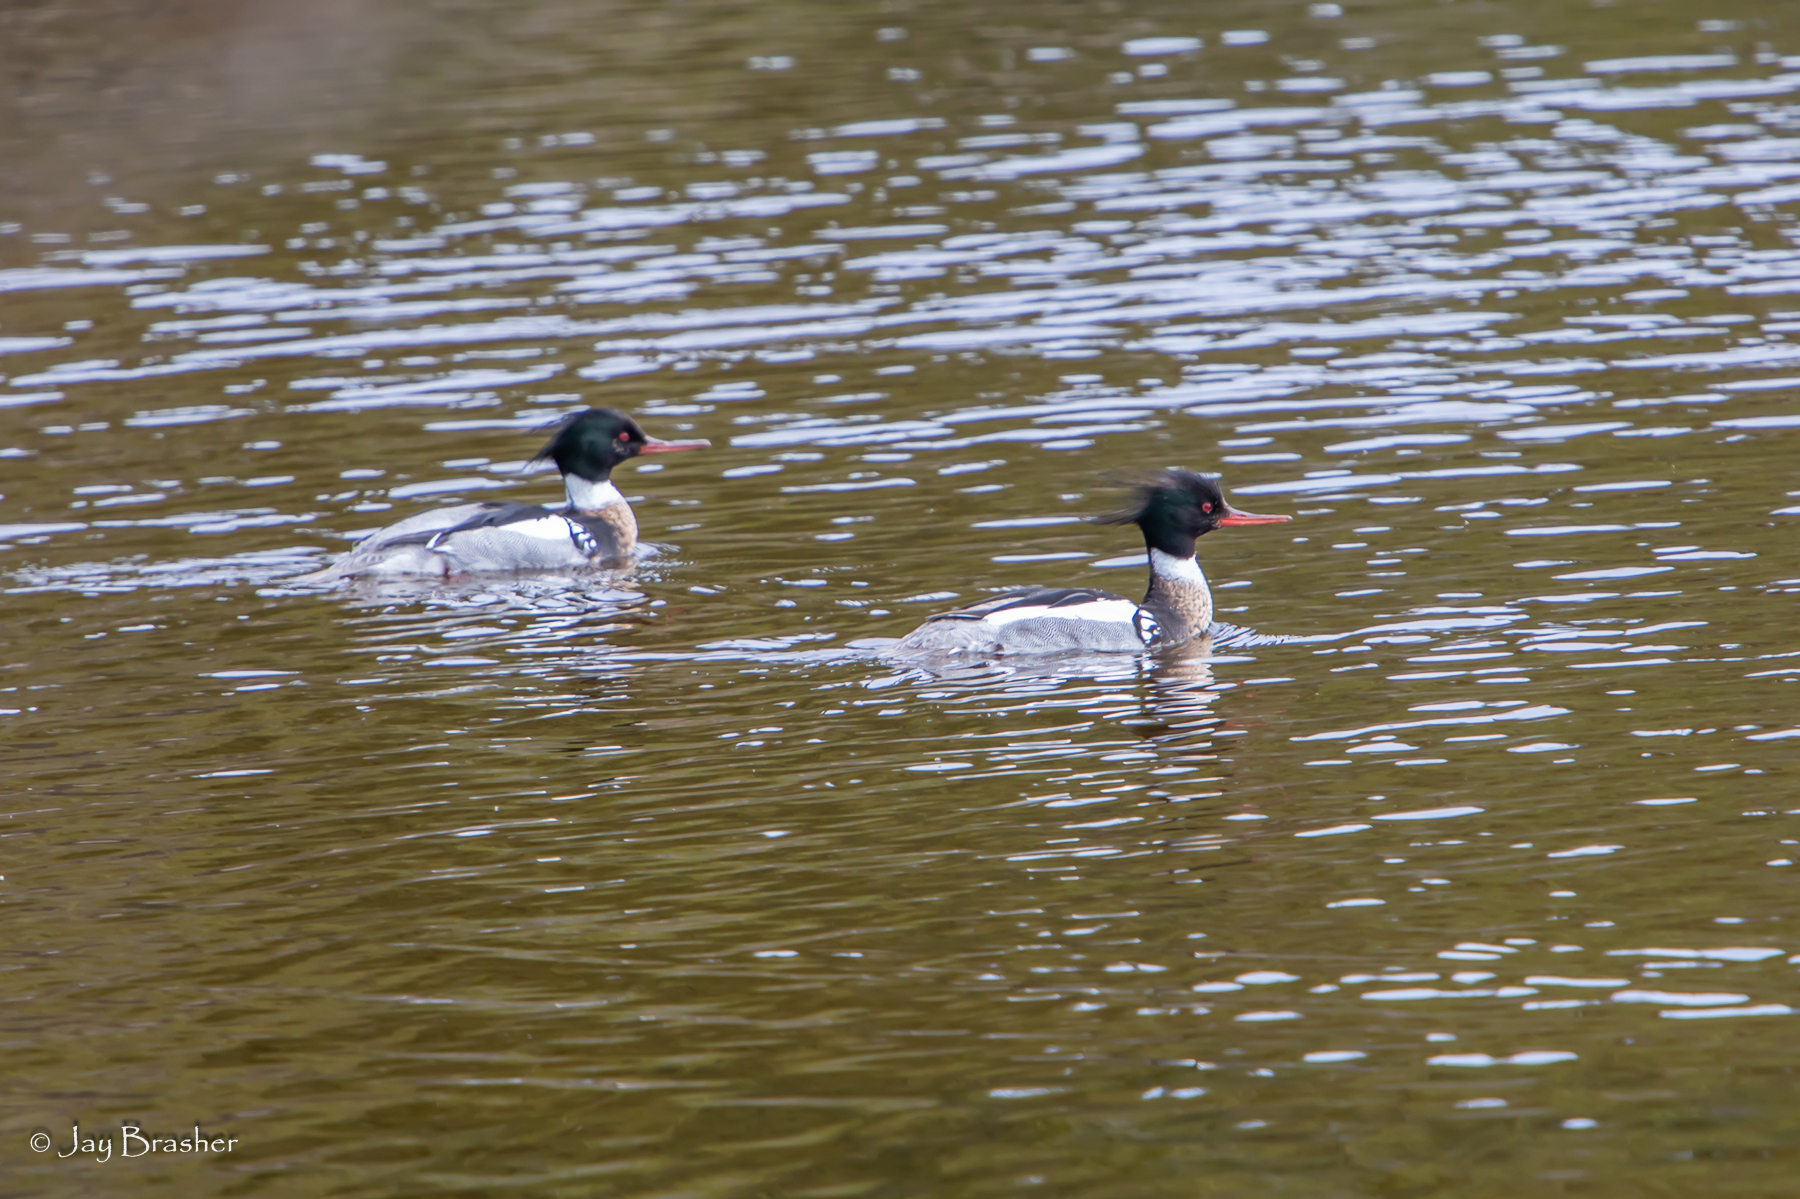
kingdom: Animalia
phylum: Chordata
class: Aves
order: Anseriformes
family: Anatidae
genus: Mergus
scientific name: Mergus serrator
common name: Red-breasted merganser
